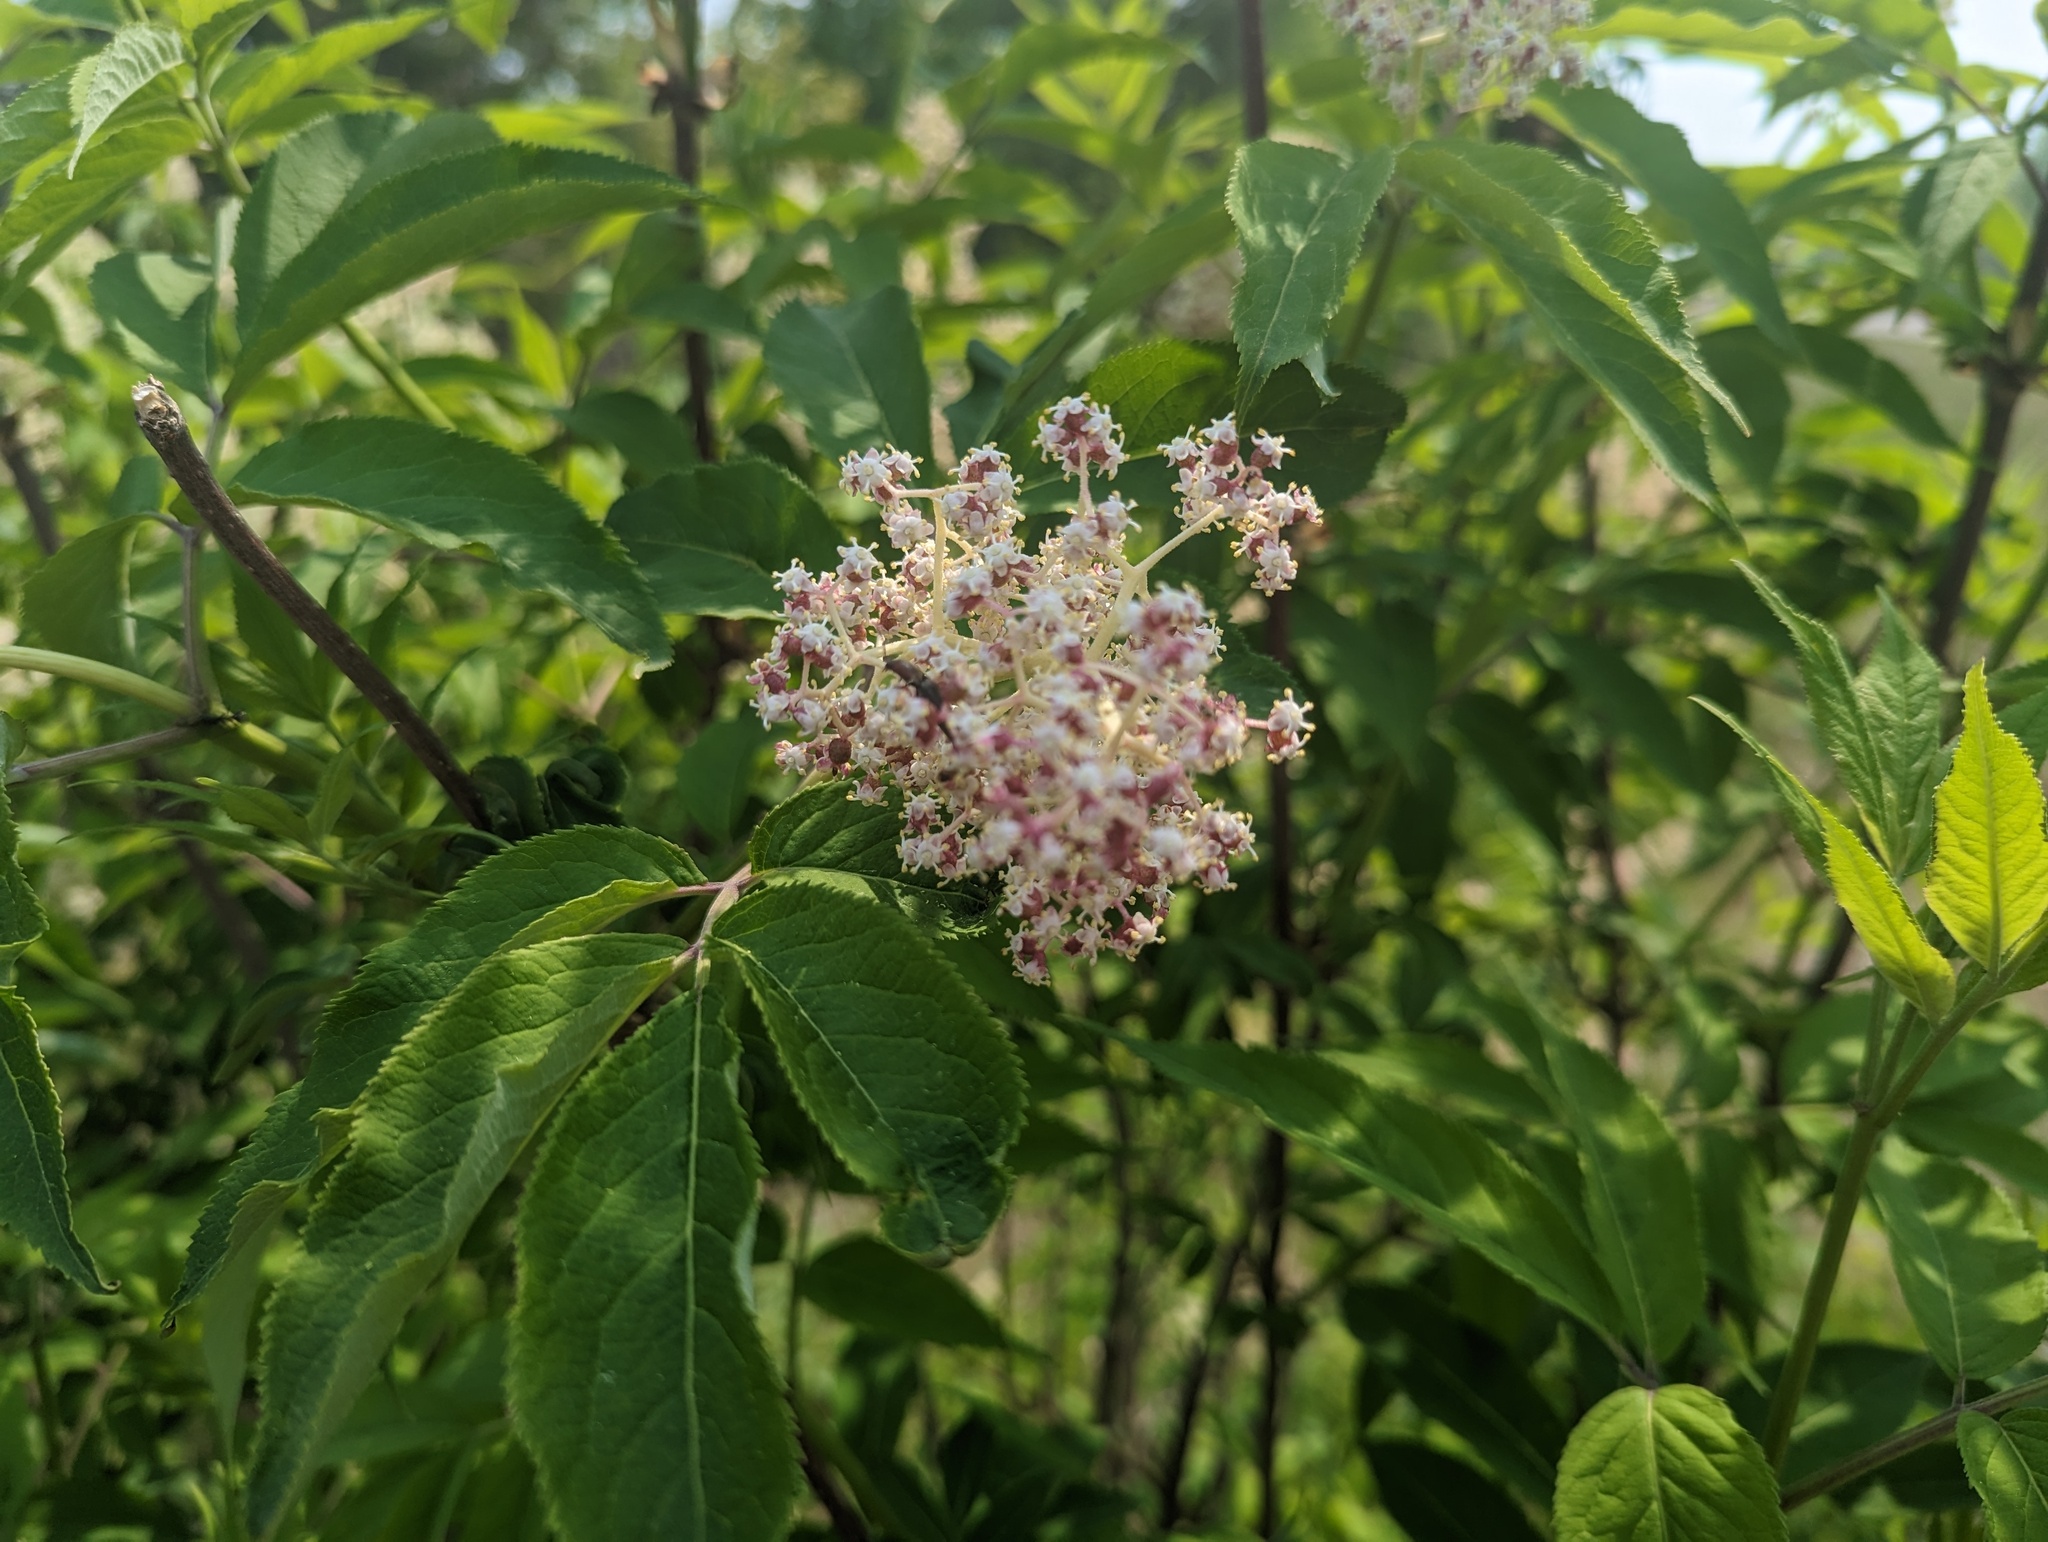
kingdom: Plantae
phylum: Tracheophyta
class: Magnoliopsida
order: Dipsacales
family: Viburnaceae
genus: Sambucus
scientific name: Sambucus racemosa
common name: Red-berried elder
